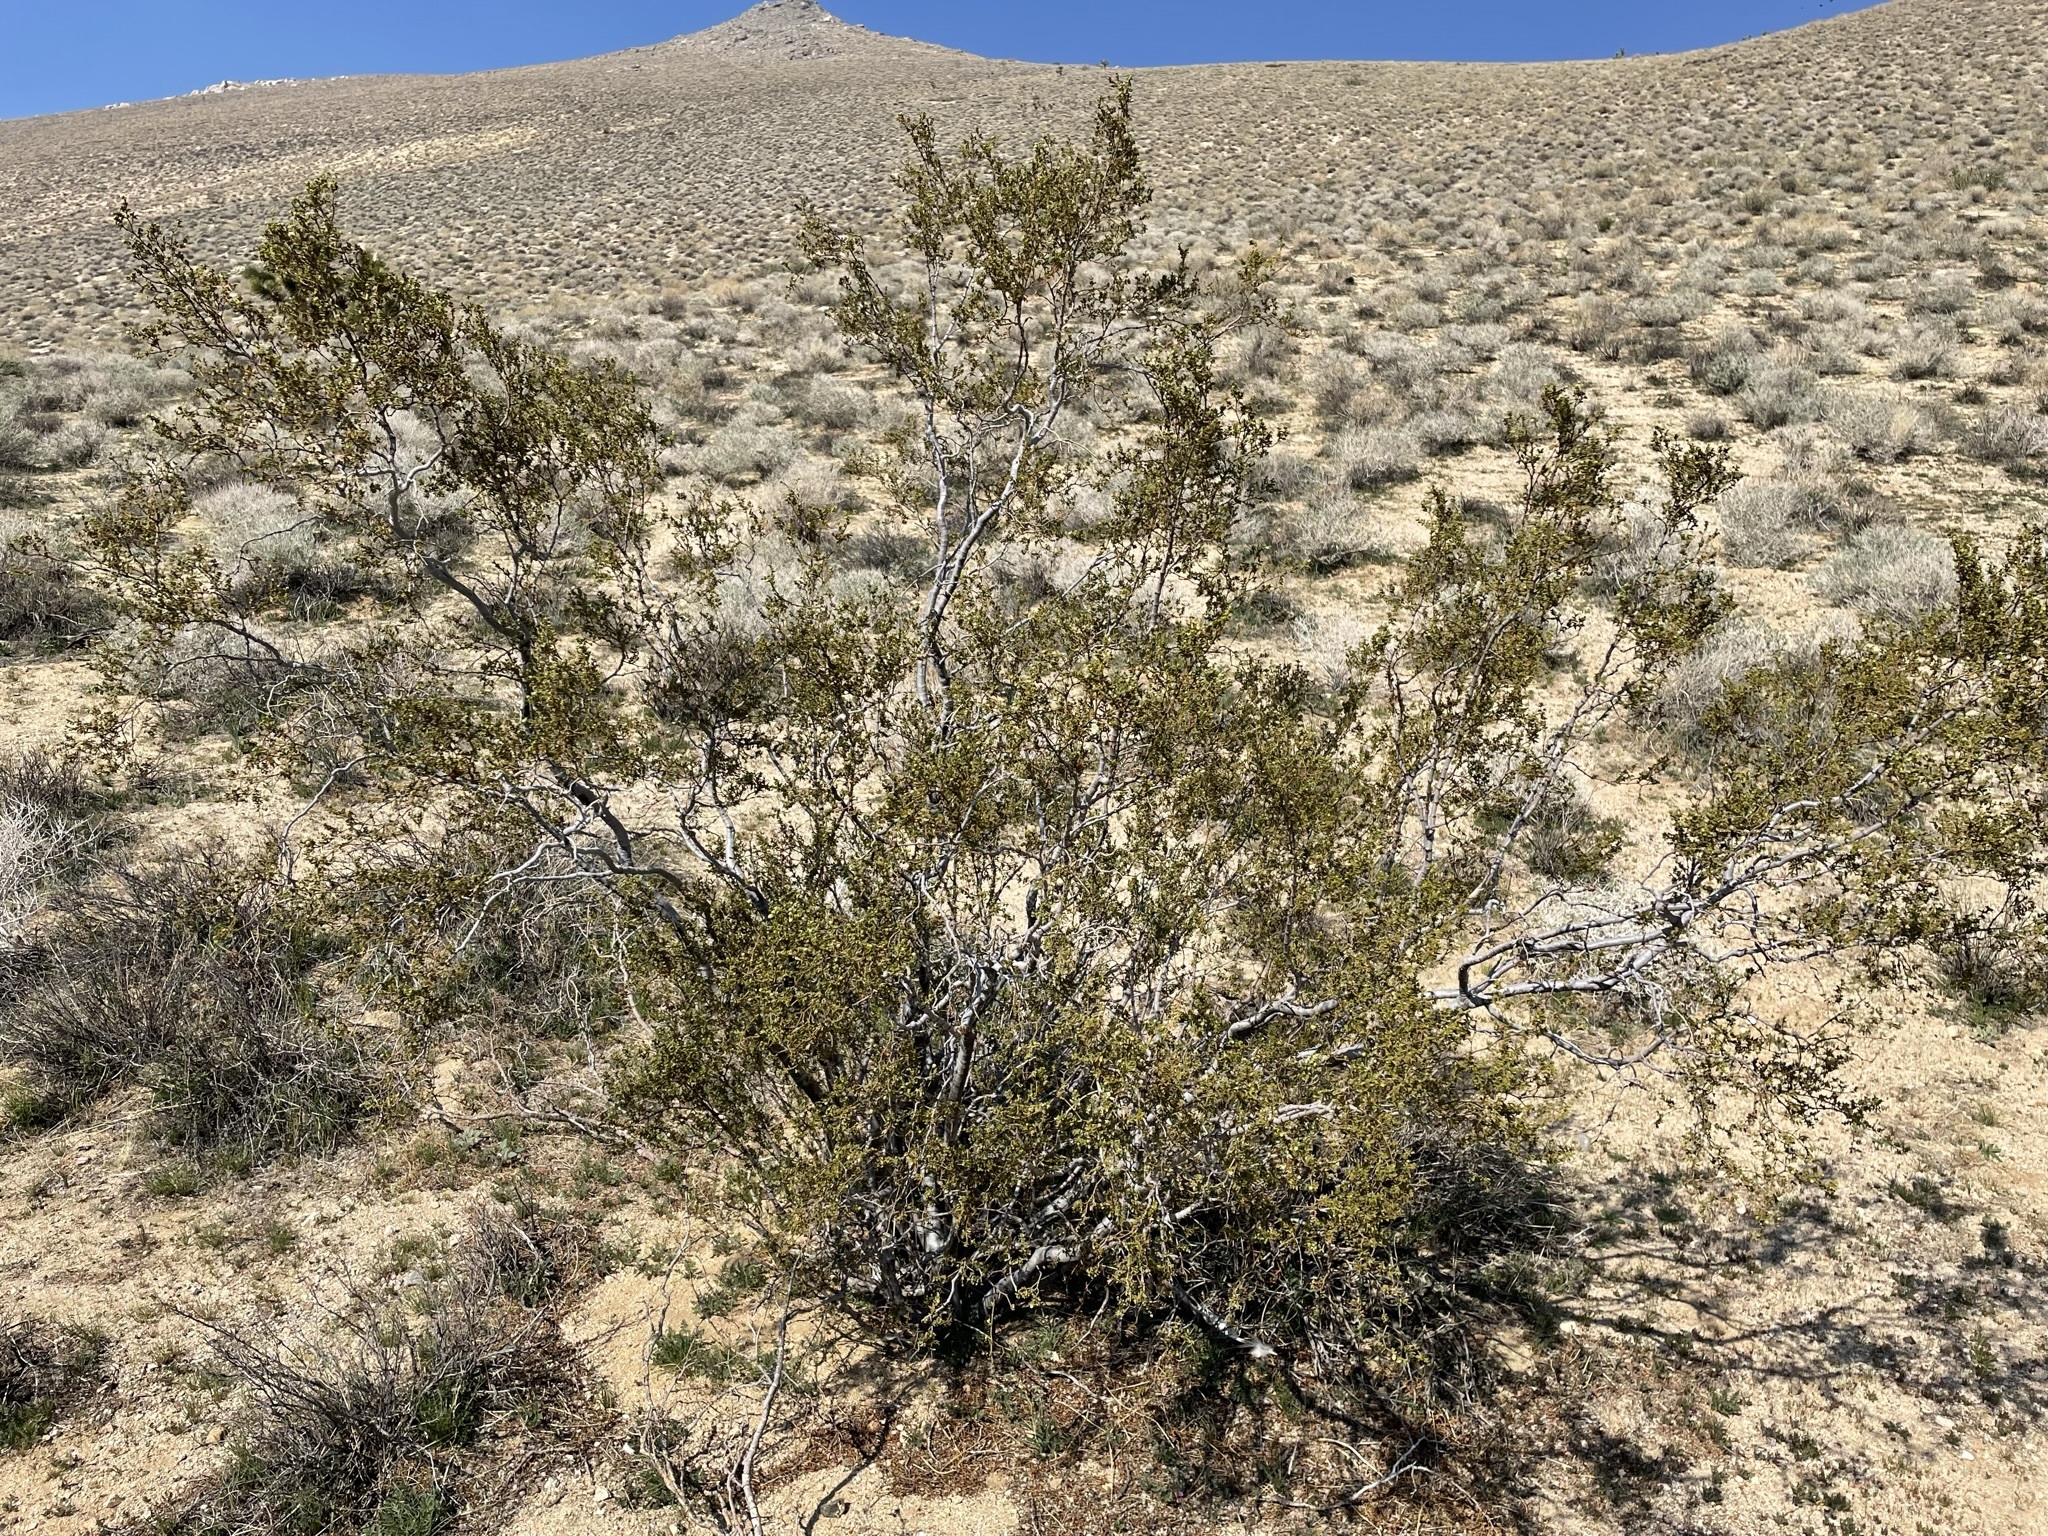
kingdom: Plantae
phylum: Tracheophyta
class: Magnoliopsida
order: Zygophyllales
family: Zygophyllaceae
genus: Larrea
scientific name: Larrea tridentata
